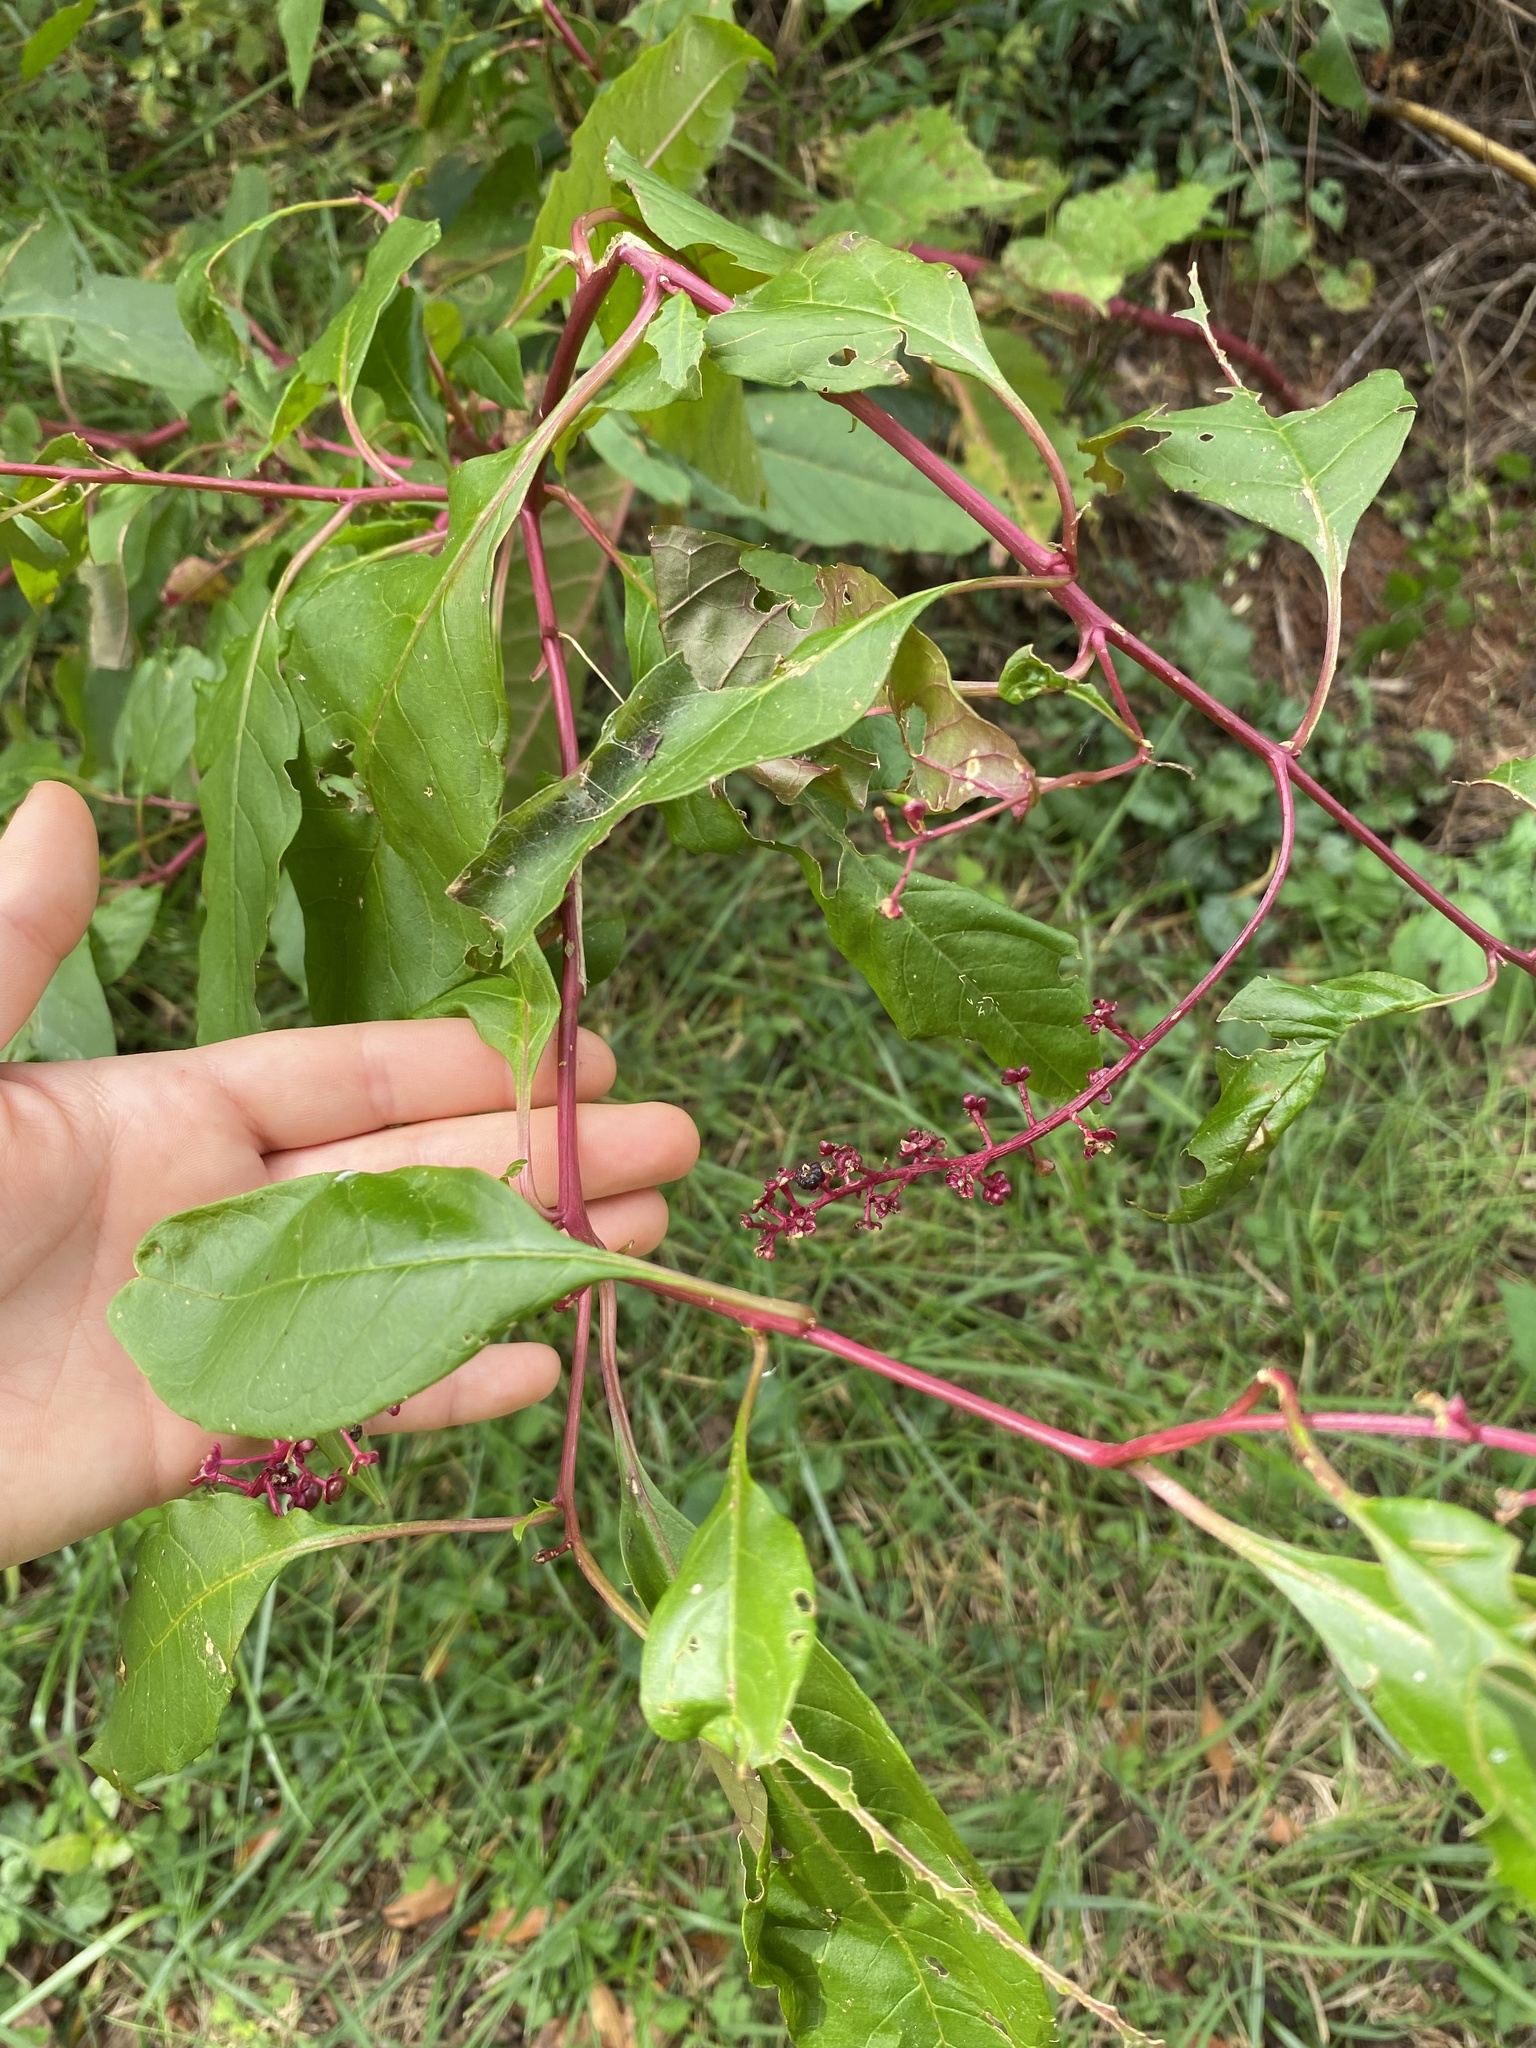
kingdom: Plantae
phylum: Tracheophyta
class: Magnoliopsida
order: Caryophyllales
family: Phytolaccaceae
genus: Phytolacca
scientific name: Phytolacca americana
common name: American pokeweed
